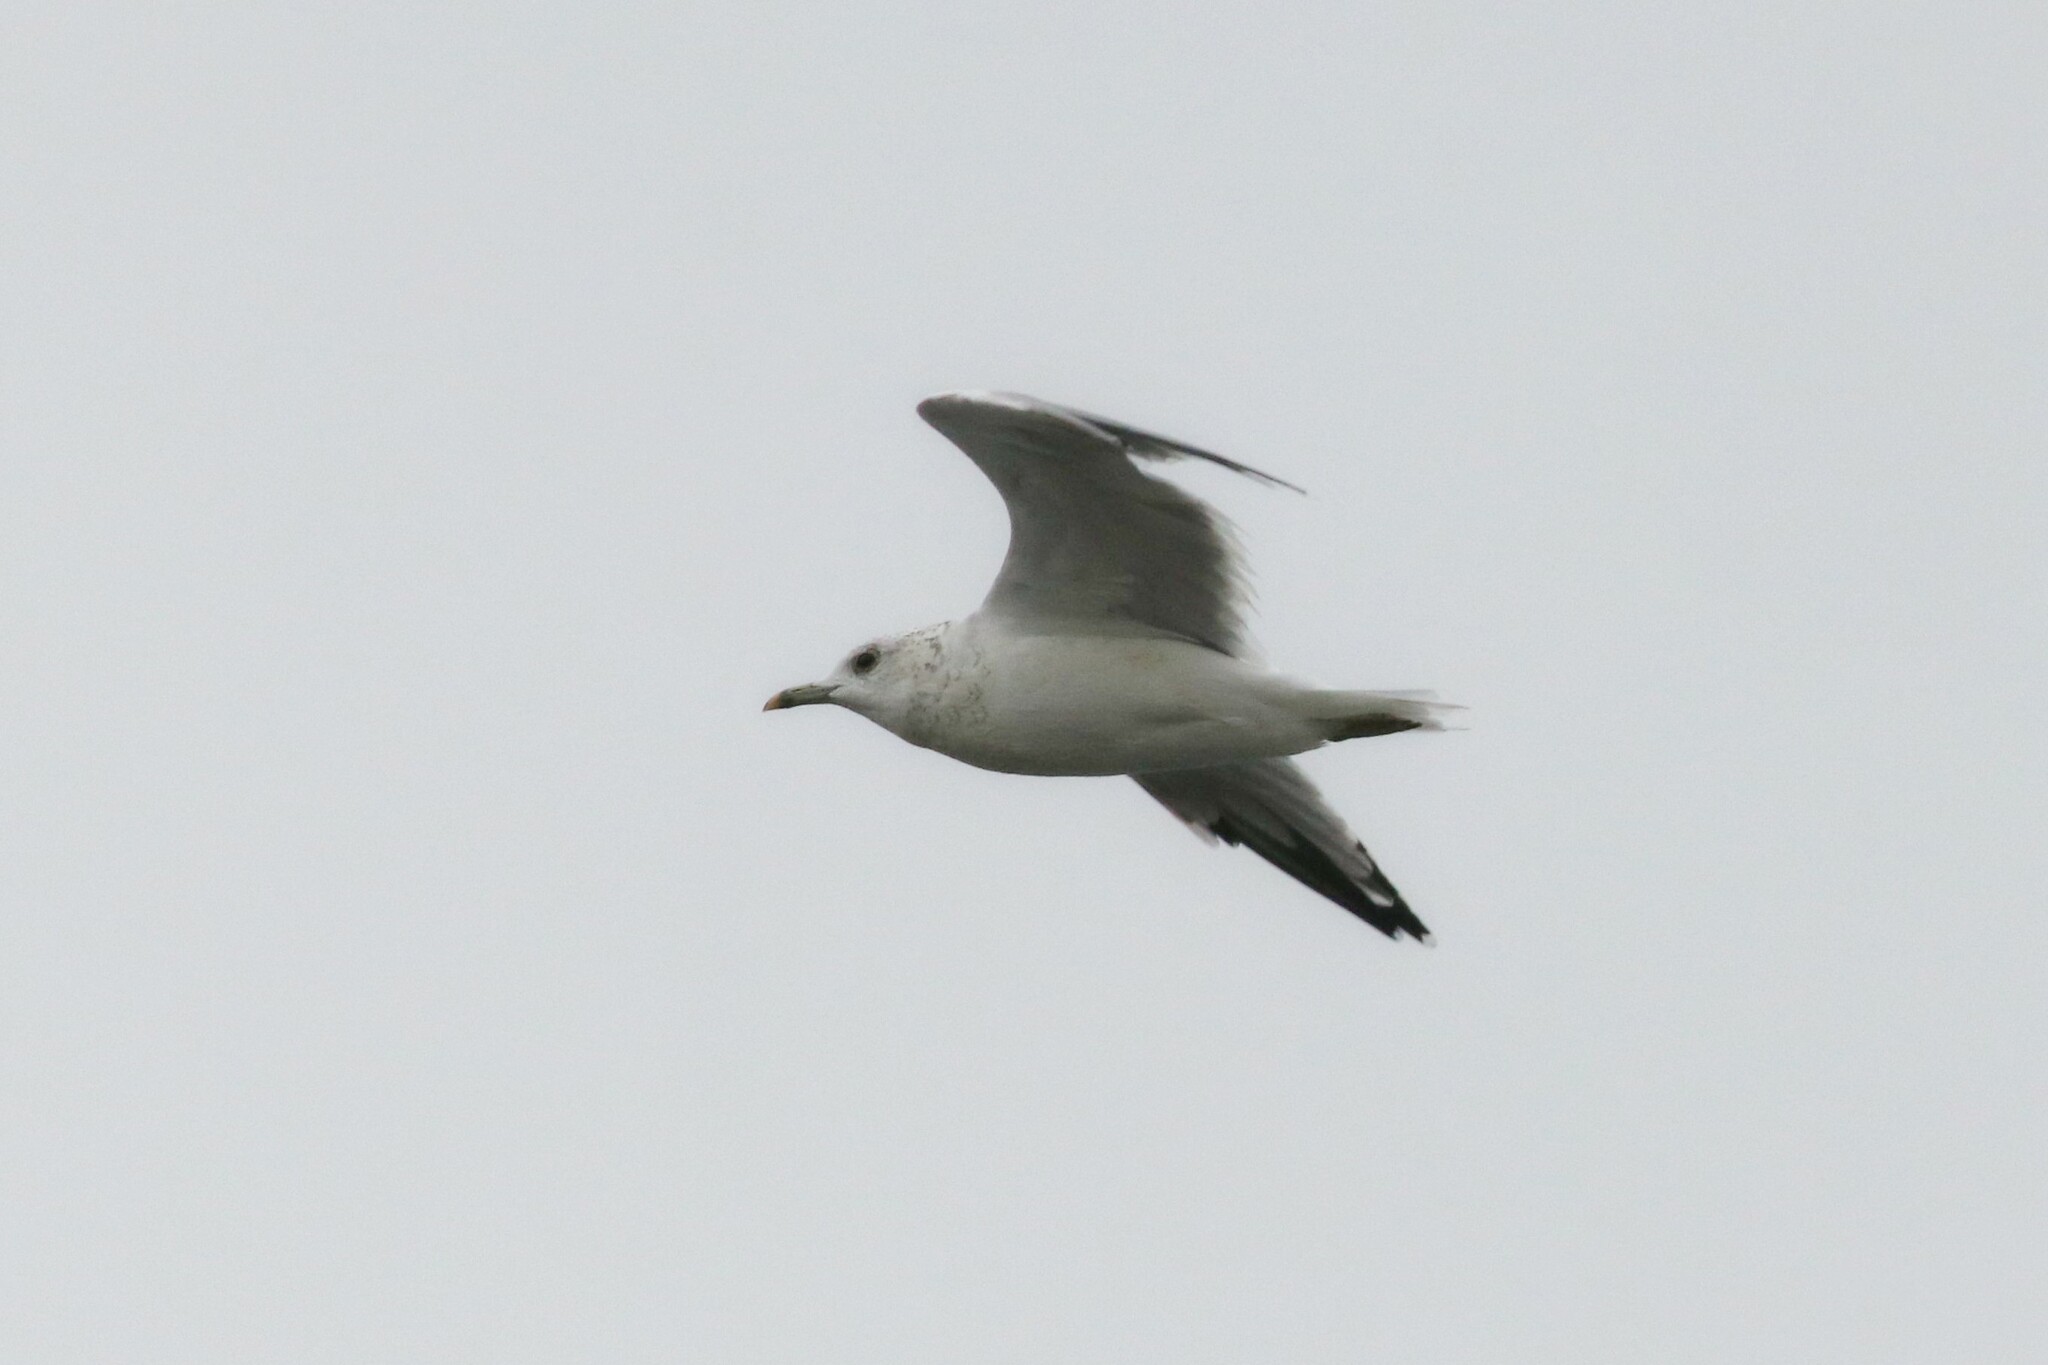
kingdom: Animalia
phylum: Chordata
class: Aves
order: Charadriiformes
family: Laridae
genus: Larus
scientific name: Larus canus
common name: Mew gull
